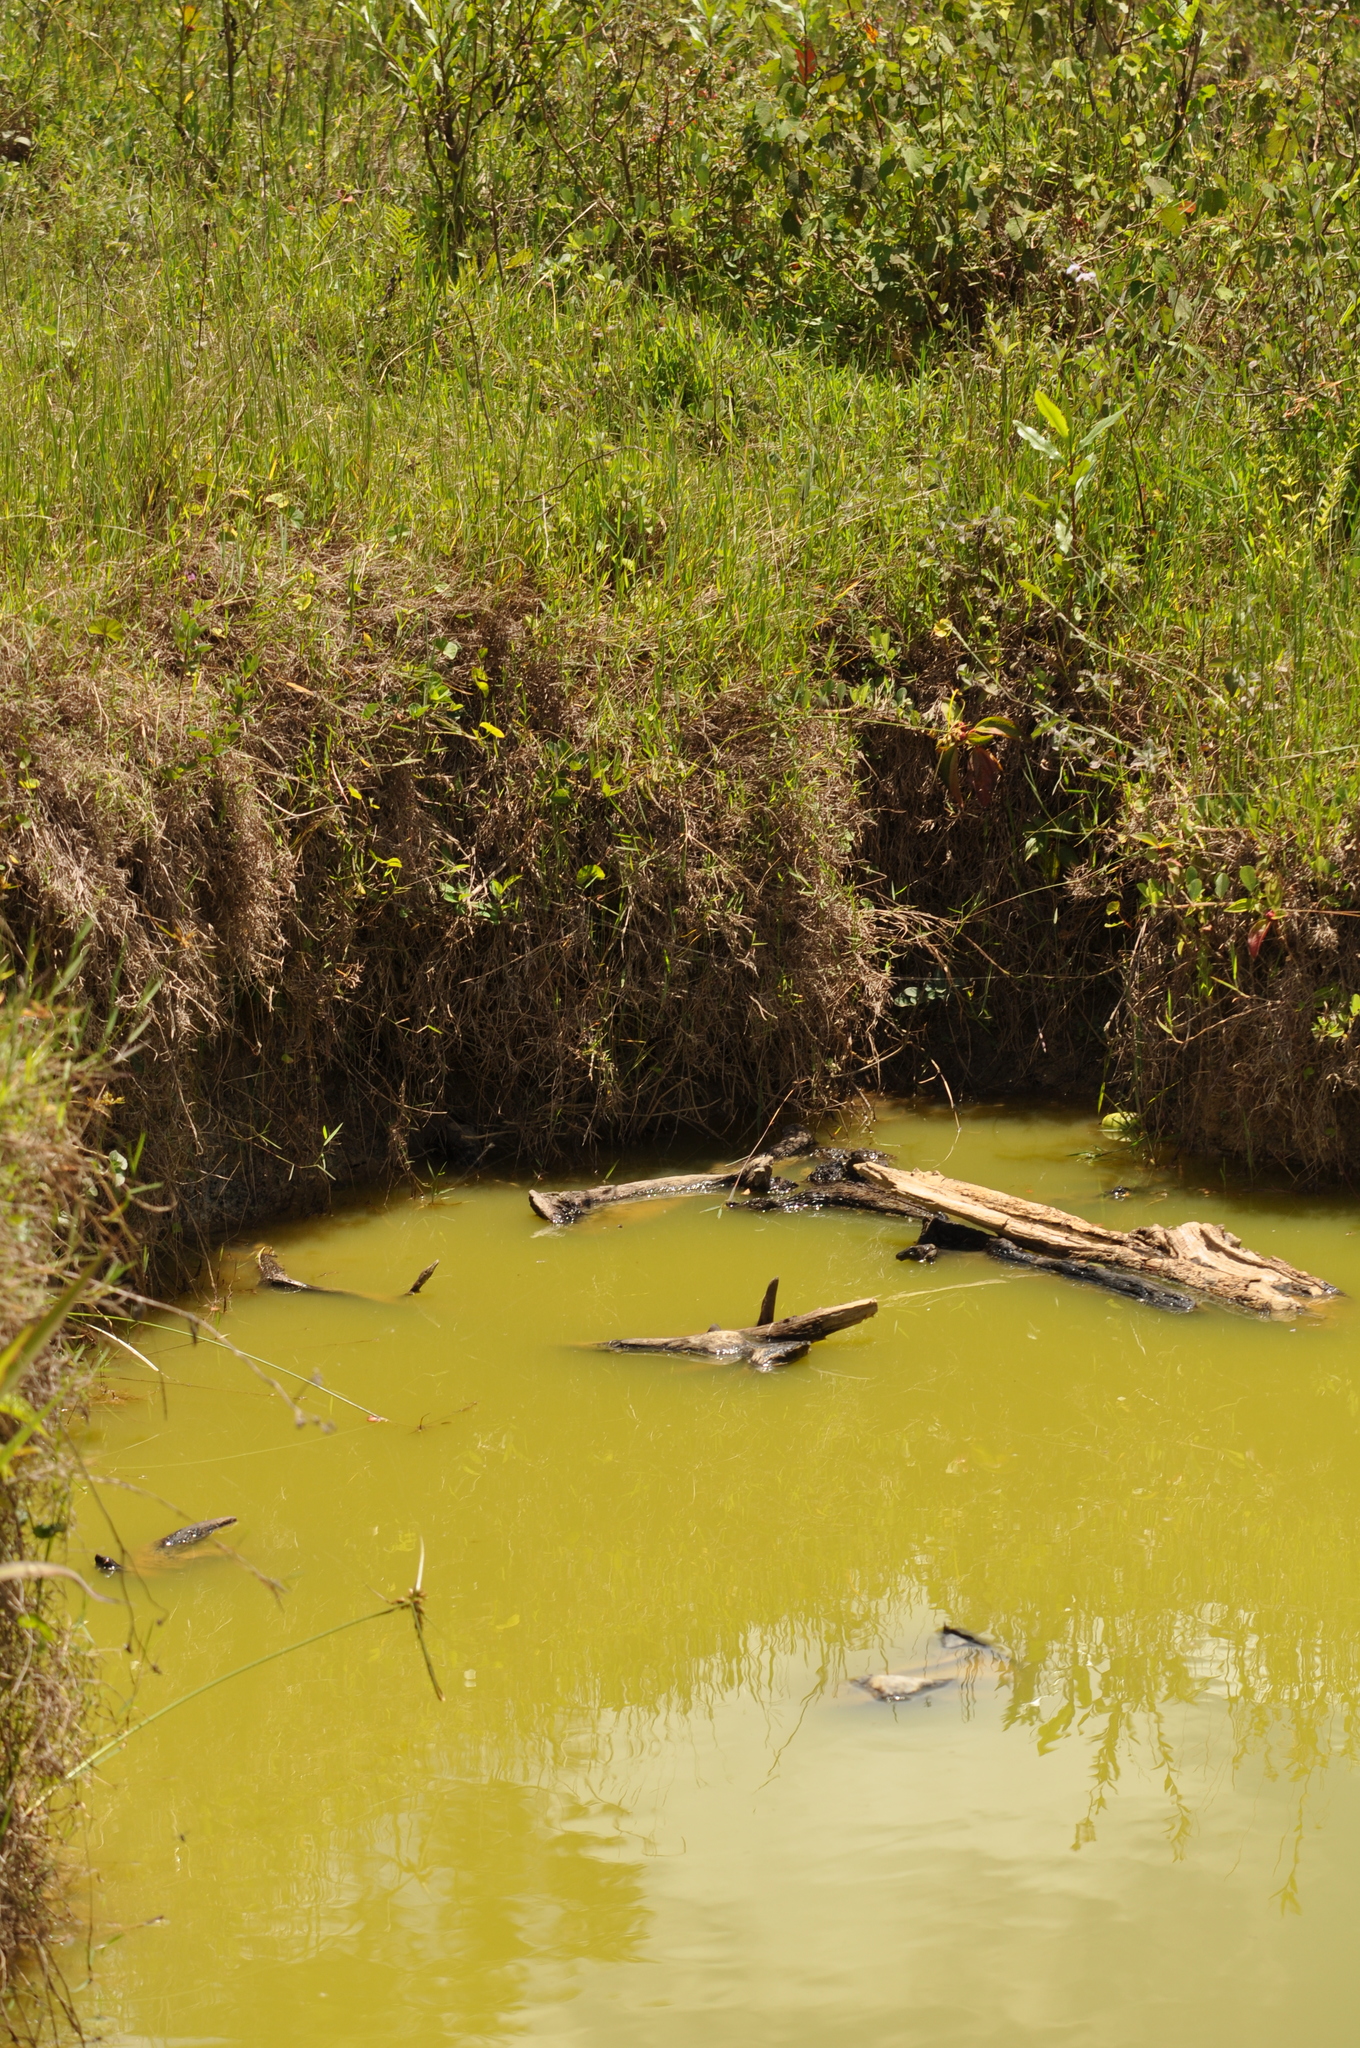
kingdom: Animalia
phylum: Arthropoda
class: Malacostraca
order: Decapoda
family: Cambaridae
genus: Procambarus
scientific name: Procambarus virginalis
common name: Marbled crayfish
